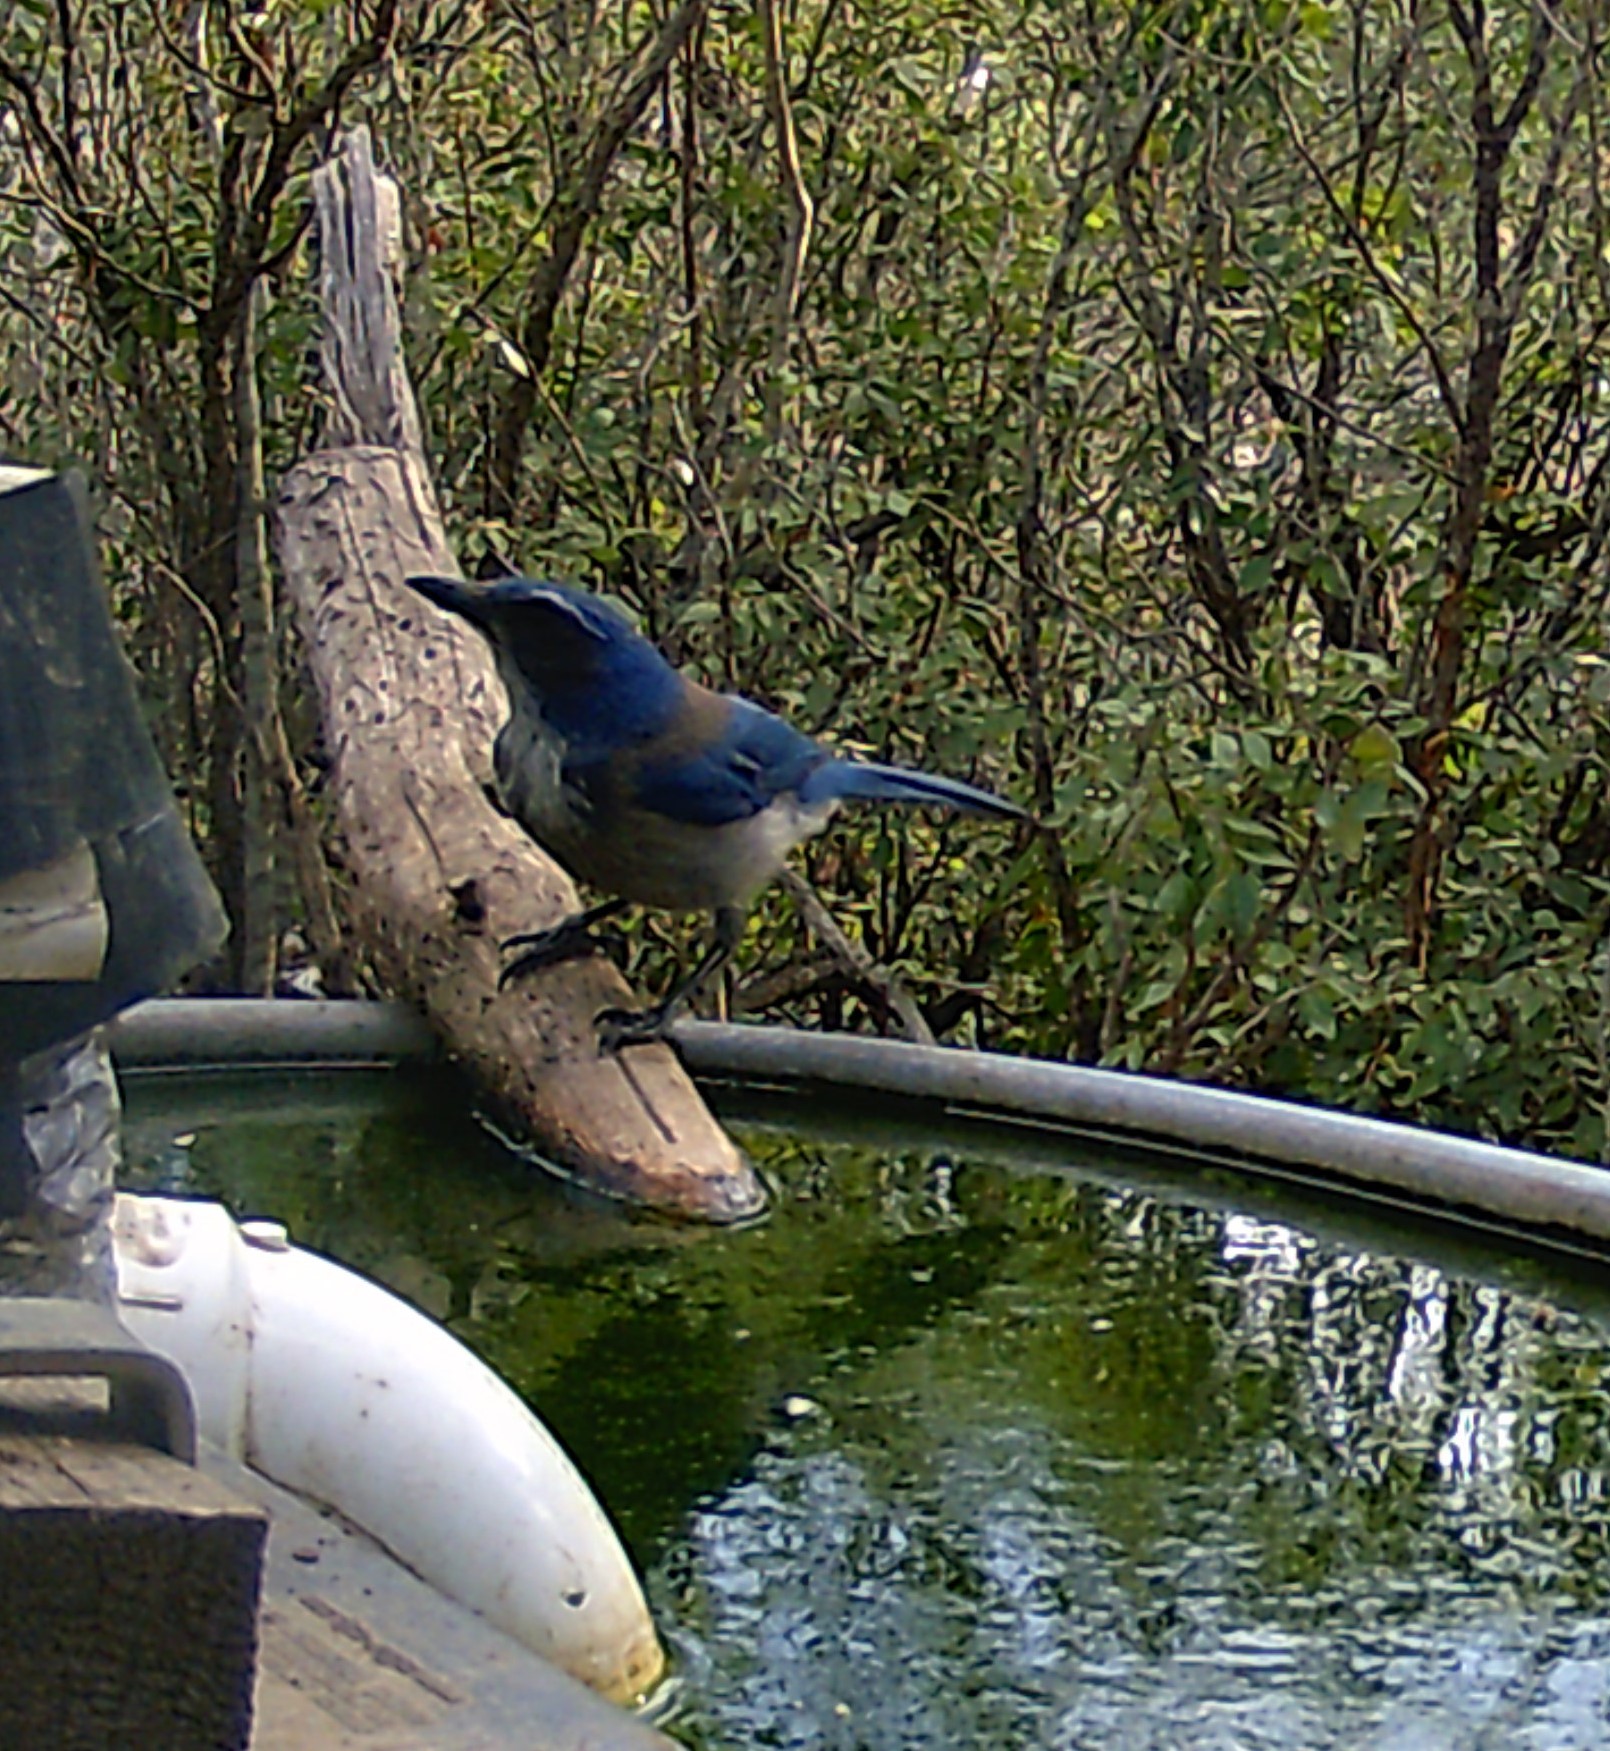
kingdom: Animalia
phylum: Chordata
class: Aves
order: Passeriformes
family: Corvidae
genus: Aphelocoma
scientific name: Aphelocoma woodhouseii
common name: Woodhouse's scrub-jay
